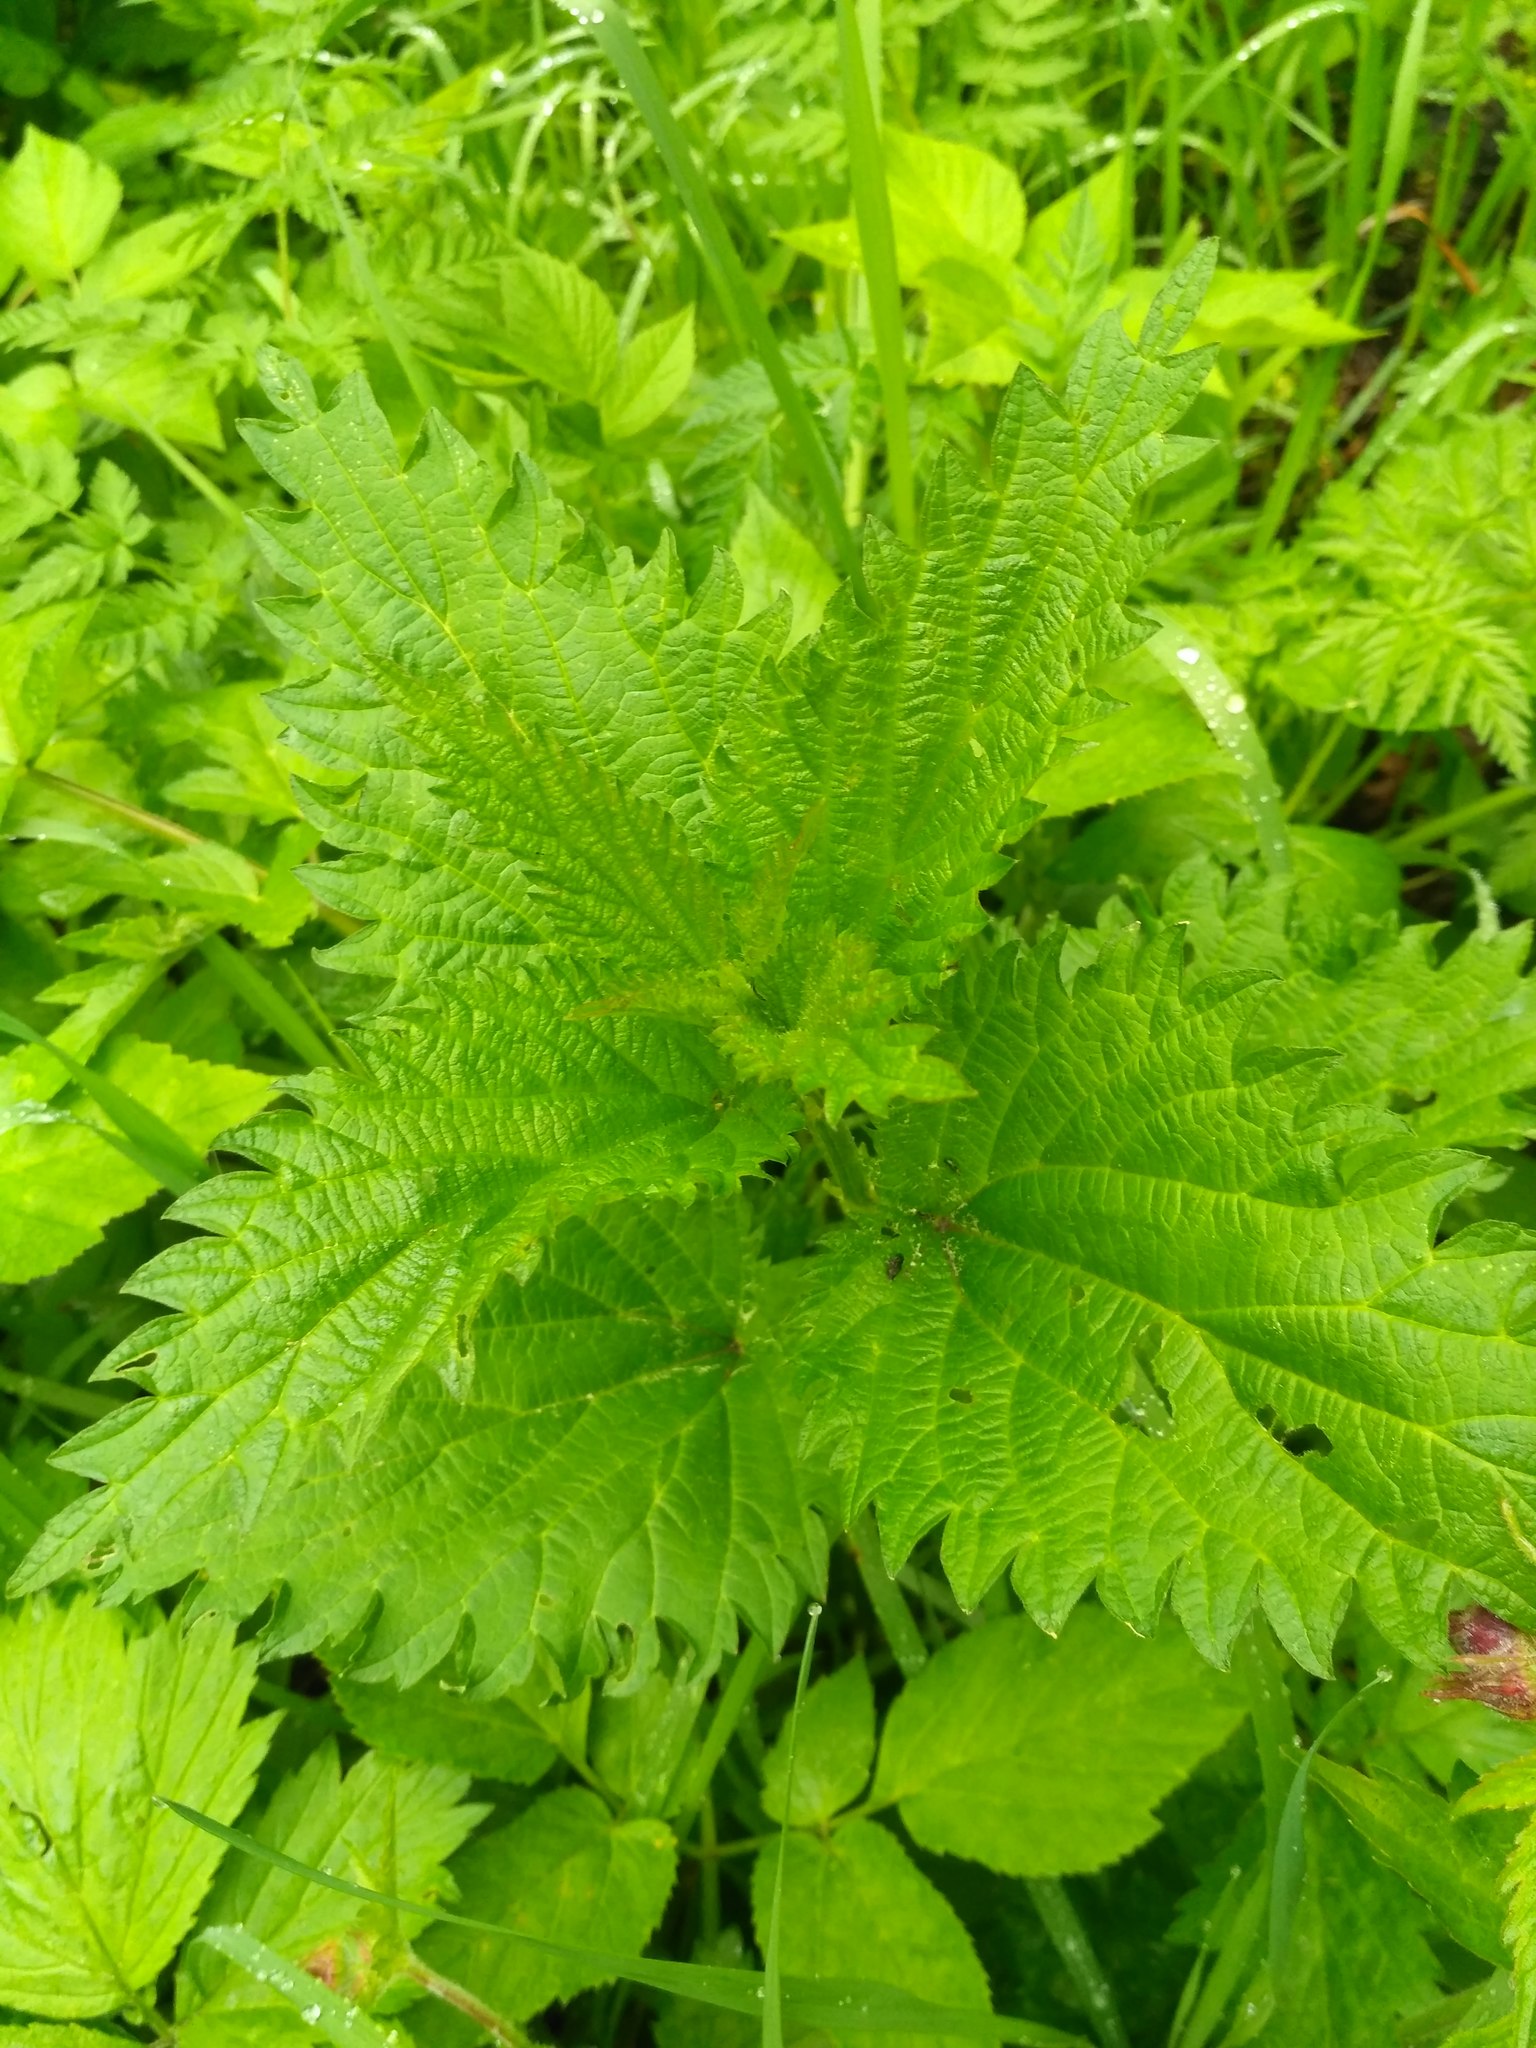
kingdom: Plantae
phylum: Tracheophyta
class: Magnoliopsida
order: Rosales
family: Urticaceae
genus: Urtica
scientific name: Urtica dioica
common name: Common nettle
